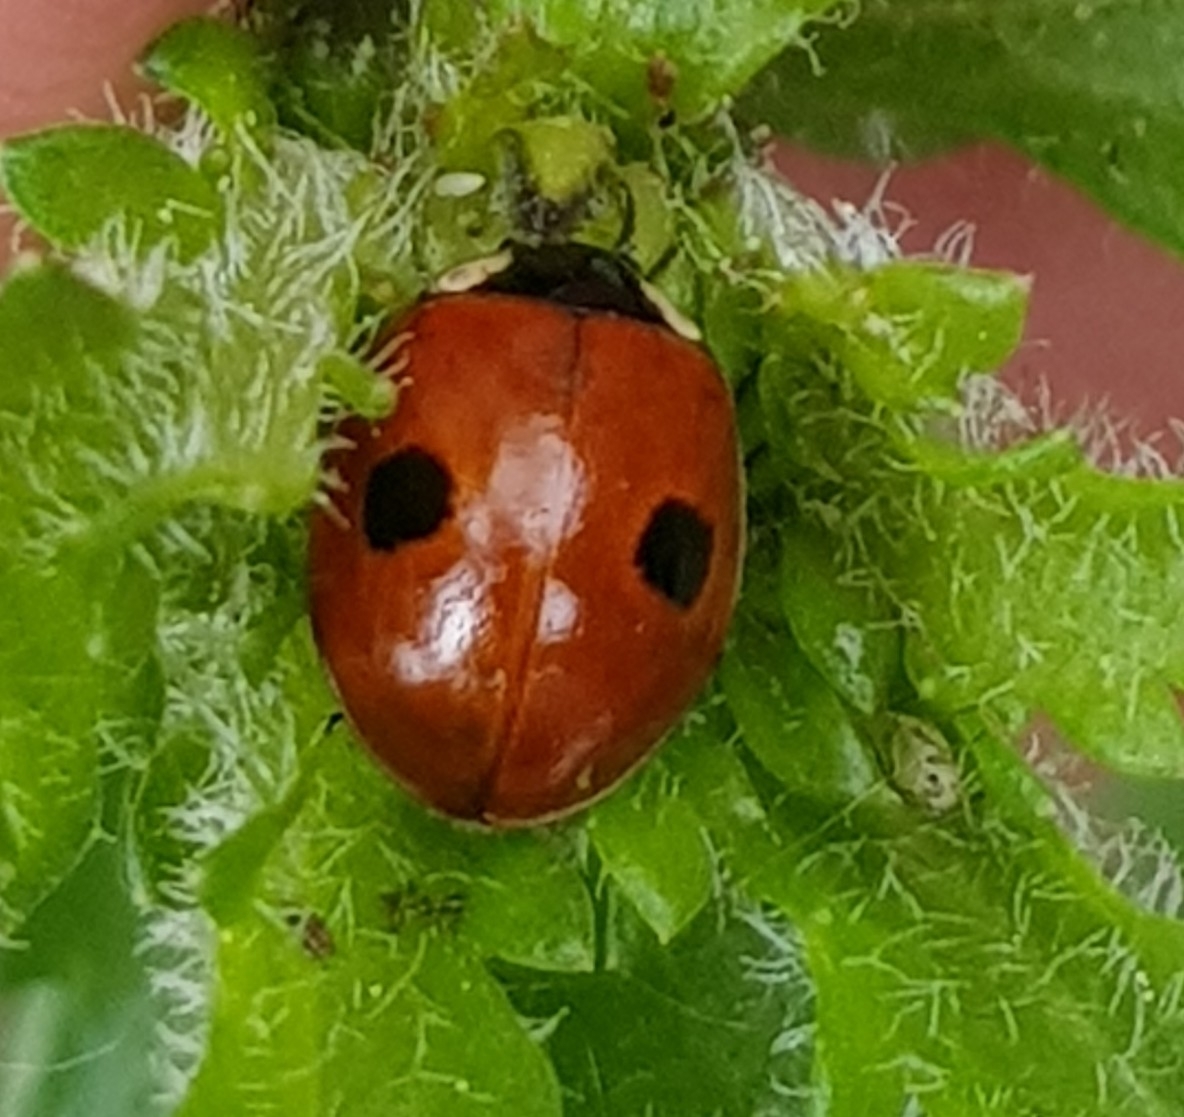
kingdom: Animalia
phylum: Arthropoda
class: Insecta
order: Coleoptera
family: Coccinellidae
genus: Adalia
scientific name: Adalia bipunctata
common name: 2-spot ladybird
